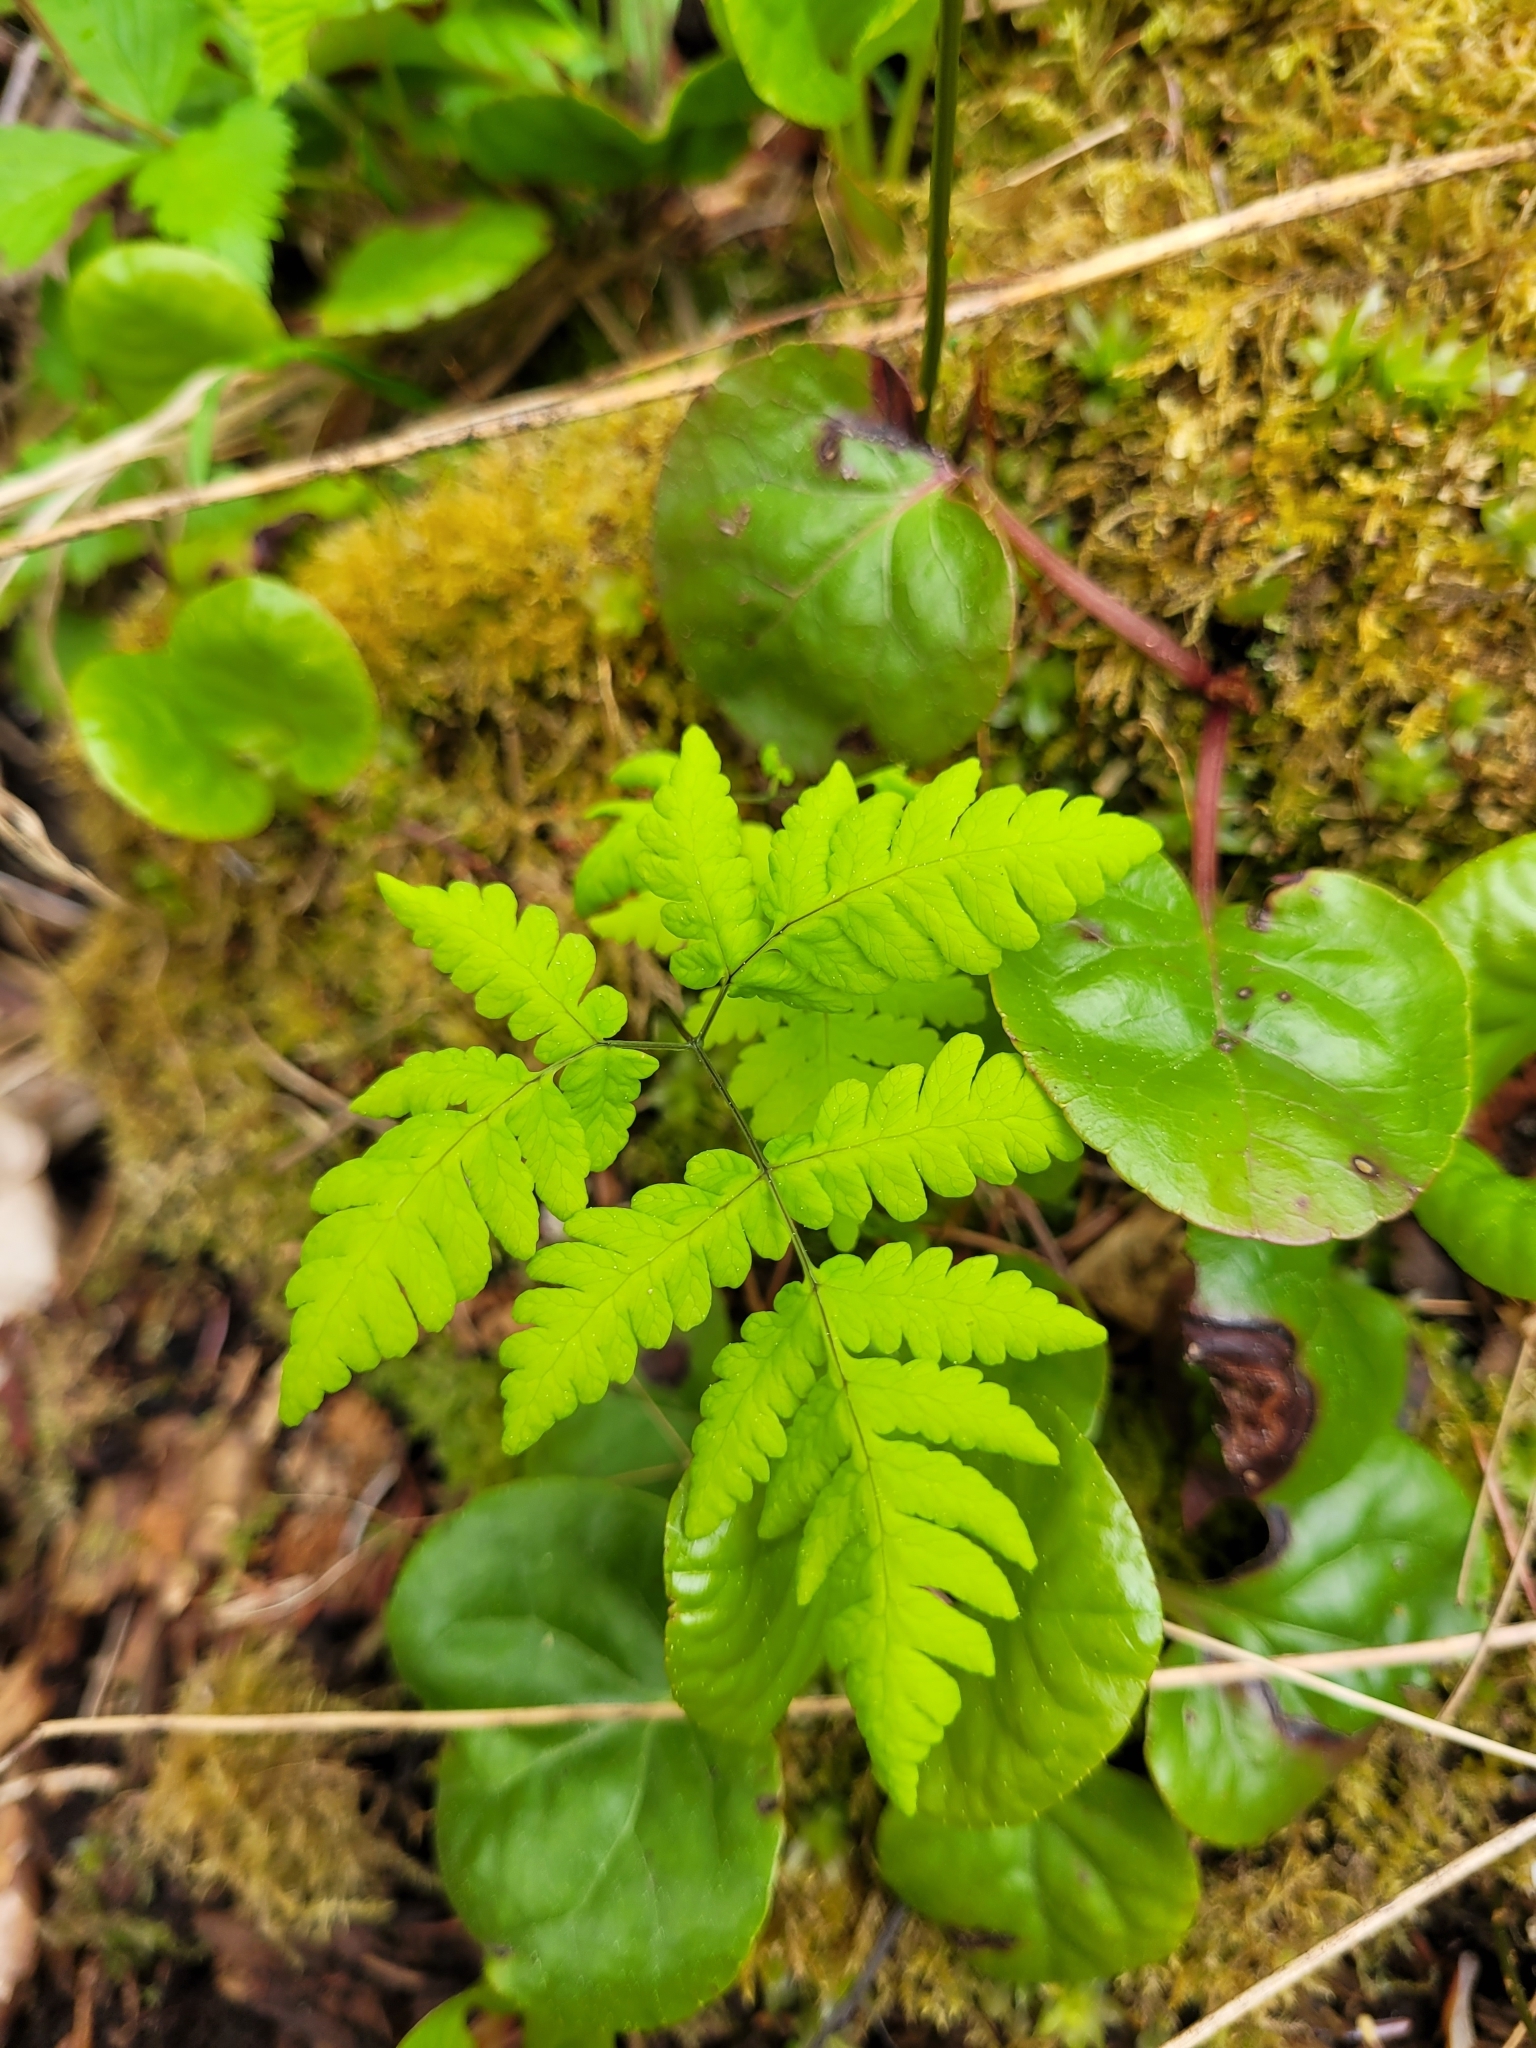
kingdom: Plantae
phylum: Tracheophyta
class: Polypodiopsida
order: Polypodiales
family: Cystopteridaceae
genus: Gymnocarpium
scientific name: Gymnocarpium dryopteris
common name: Oak fern
